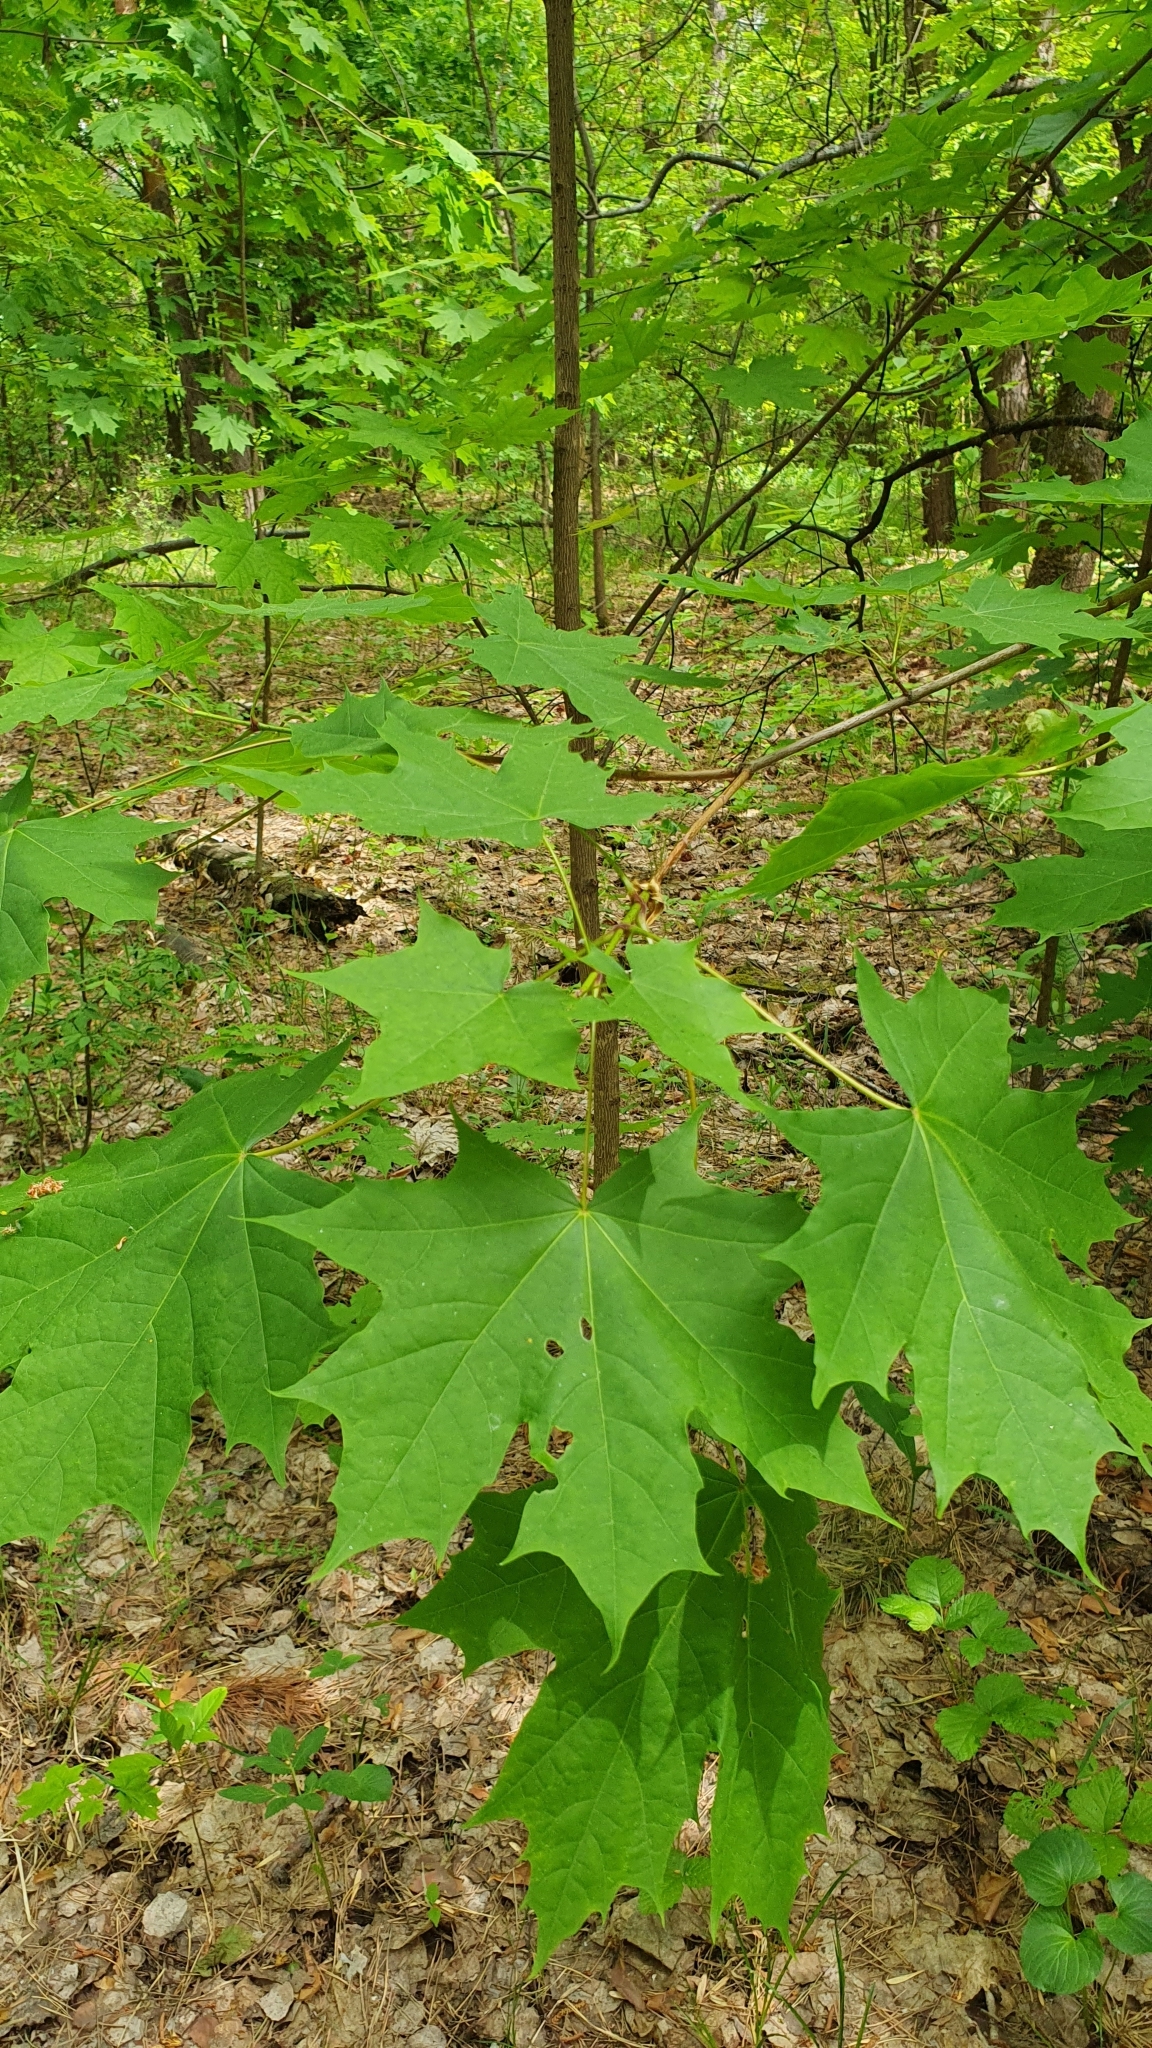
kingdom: Plantae
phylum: Tracheophyta
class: Magnoliopsida
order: Sapindales
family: Sapindaceae
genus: Acer
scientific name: Acer platanoides
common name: Norway maple
